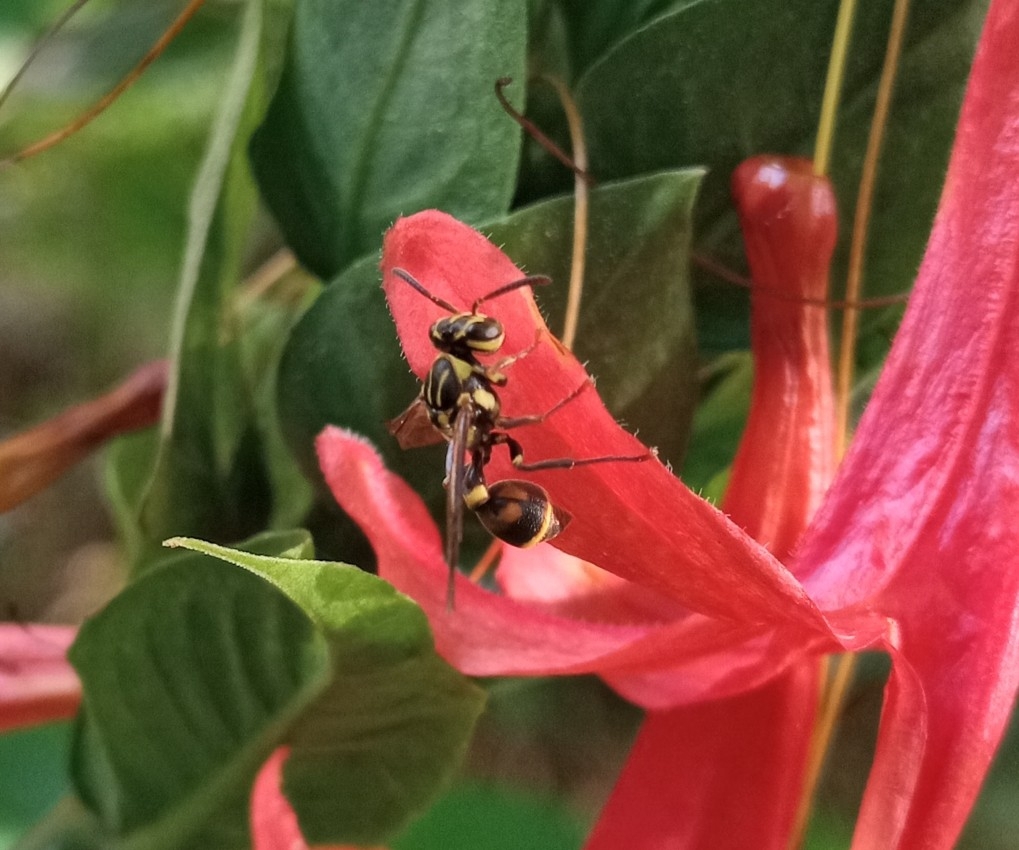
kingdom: Animalia
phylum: Arthropoda
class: Insecta
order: Hymenoptera
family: Vespidae
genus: Ropalidia
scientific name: Ropalidia flavobrunnea
